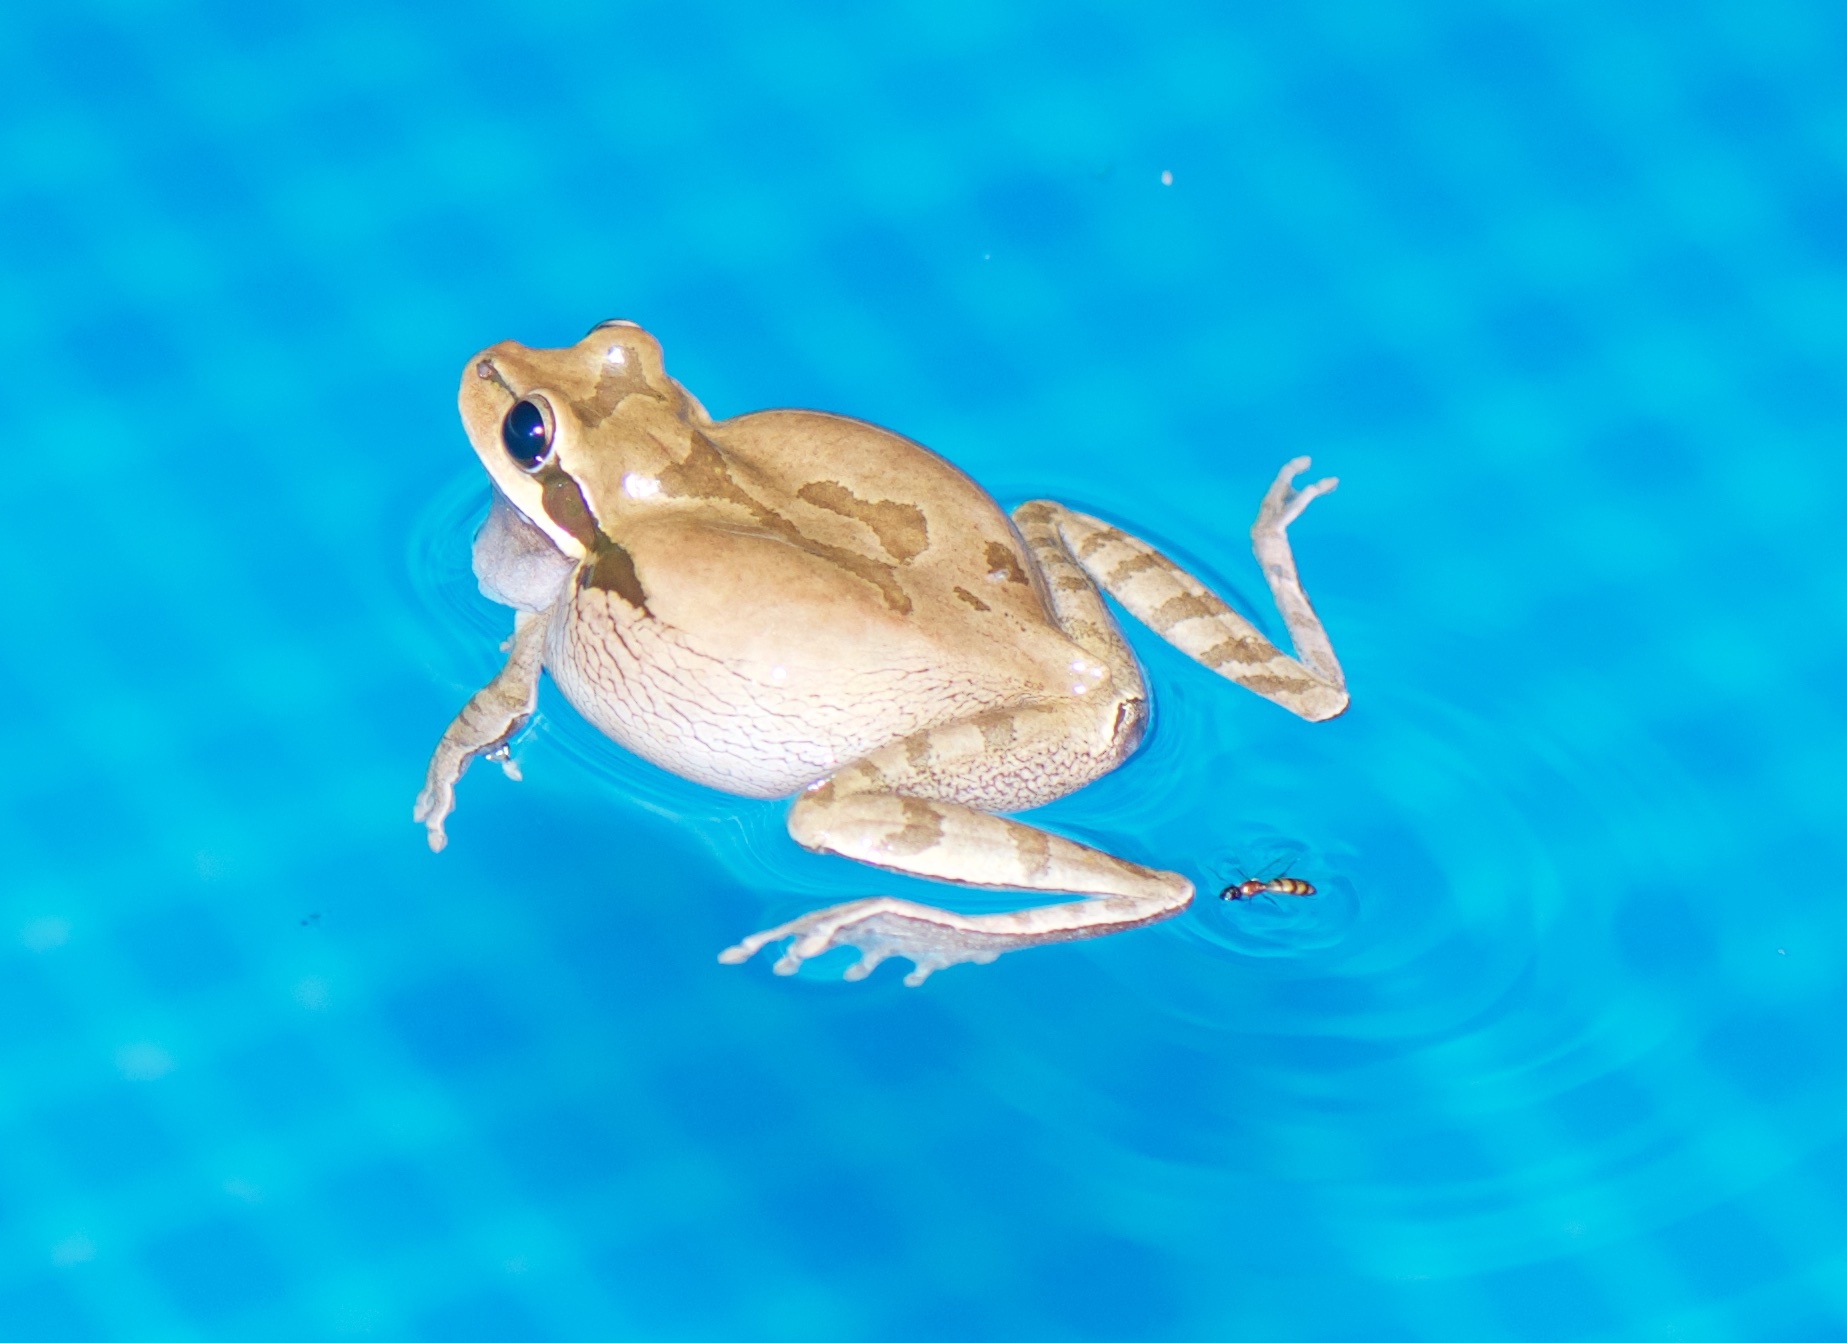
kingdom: Animalia
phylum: Chordata
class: Amphibia
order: Anura
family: Hylidae
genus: Smilisca
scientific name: Smilisca phaeota
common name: Central american smilisca
